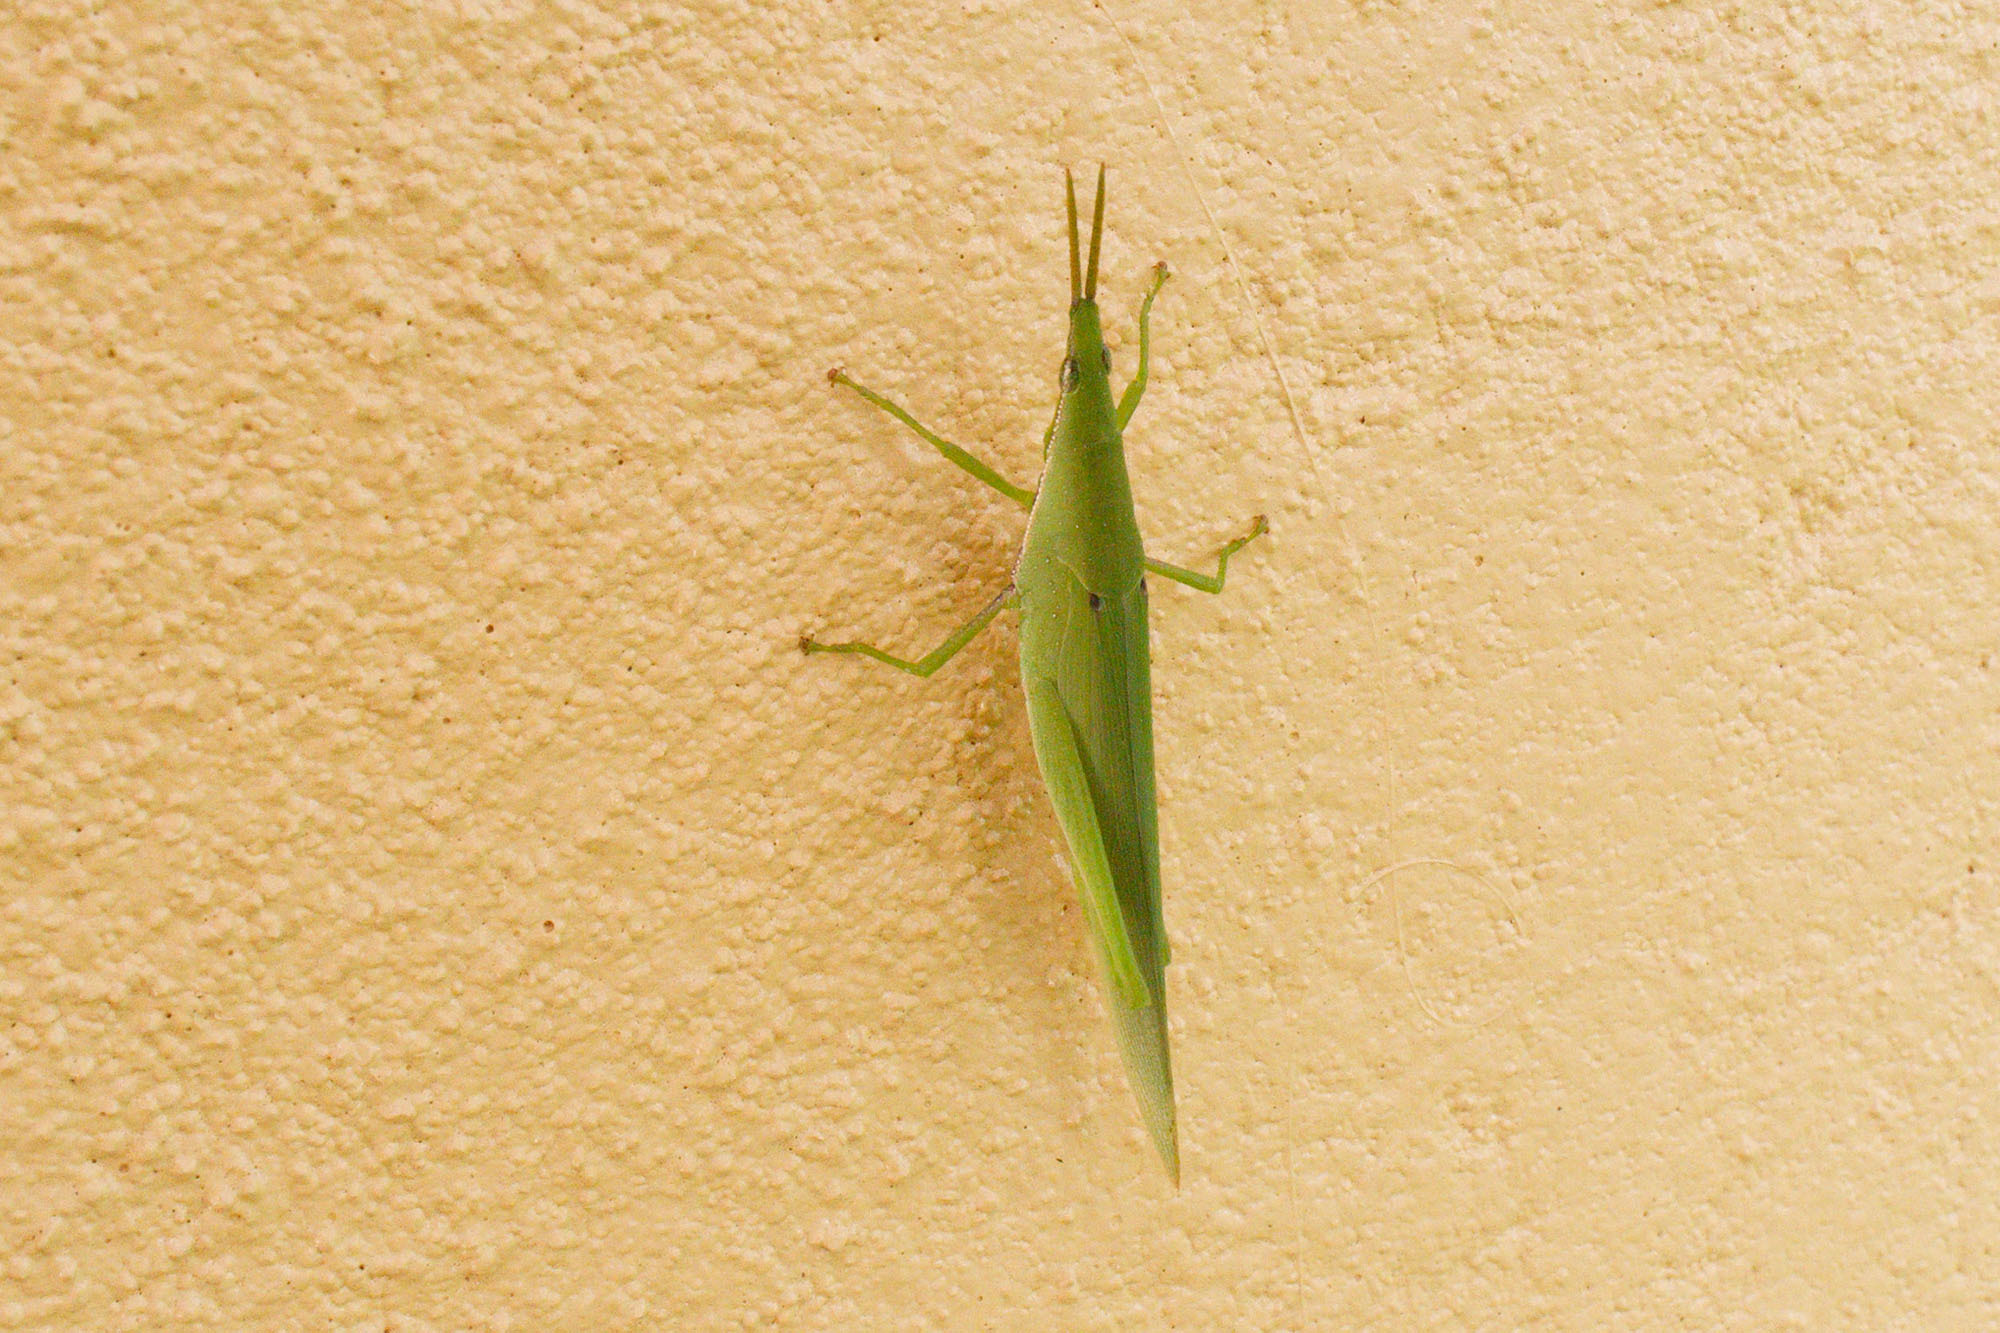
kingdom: Animalia
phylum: Arthropoda
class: Insecta
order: Orthoptera
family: Pyrgomorphidae
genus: Atractomorpha
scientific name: Atractomorpha similis
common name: Northern grass pyrgomorph
